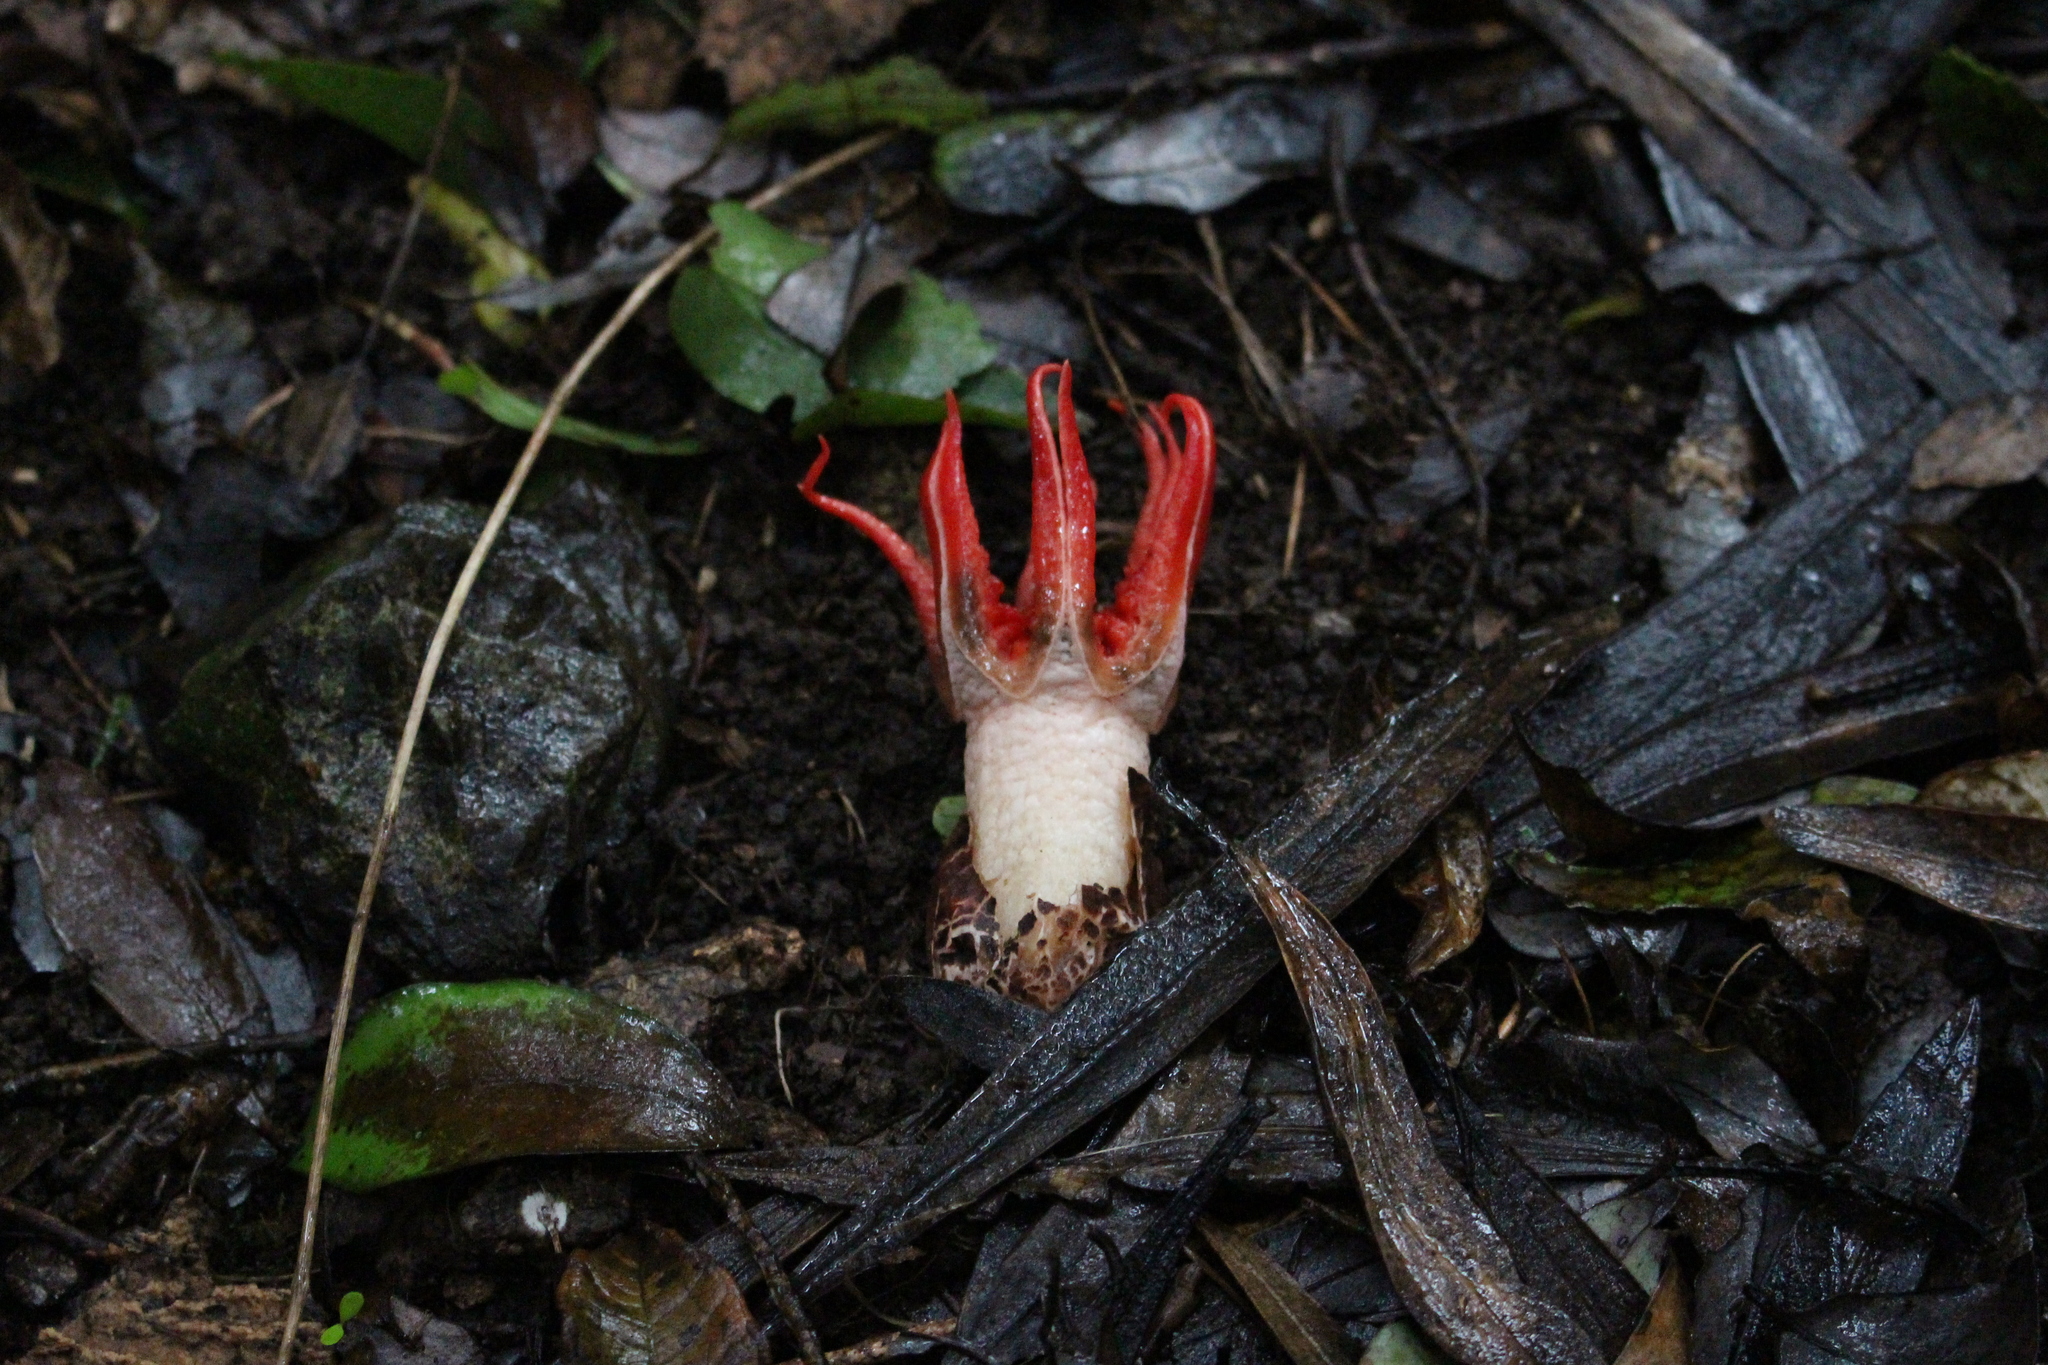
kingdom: Fungi
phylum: Basidiomycota
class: Agaricomycetes
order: Phallales
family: Phallaceae
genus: Aseroe
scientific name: Aseroe rubra
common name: Starfish fungus
